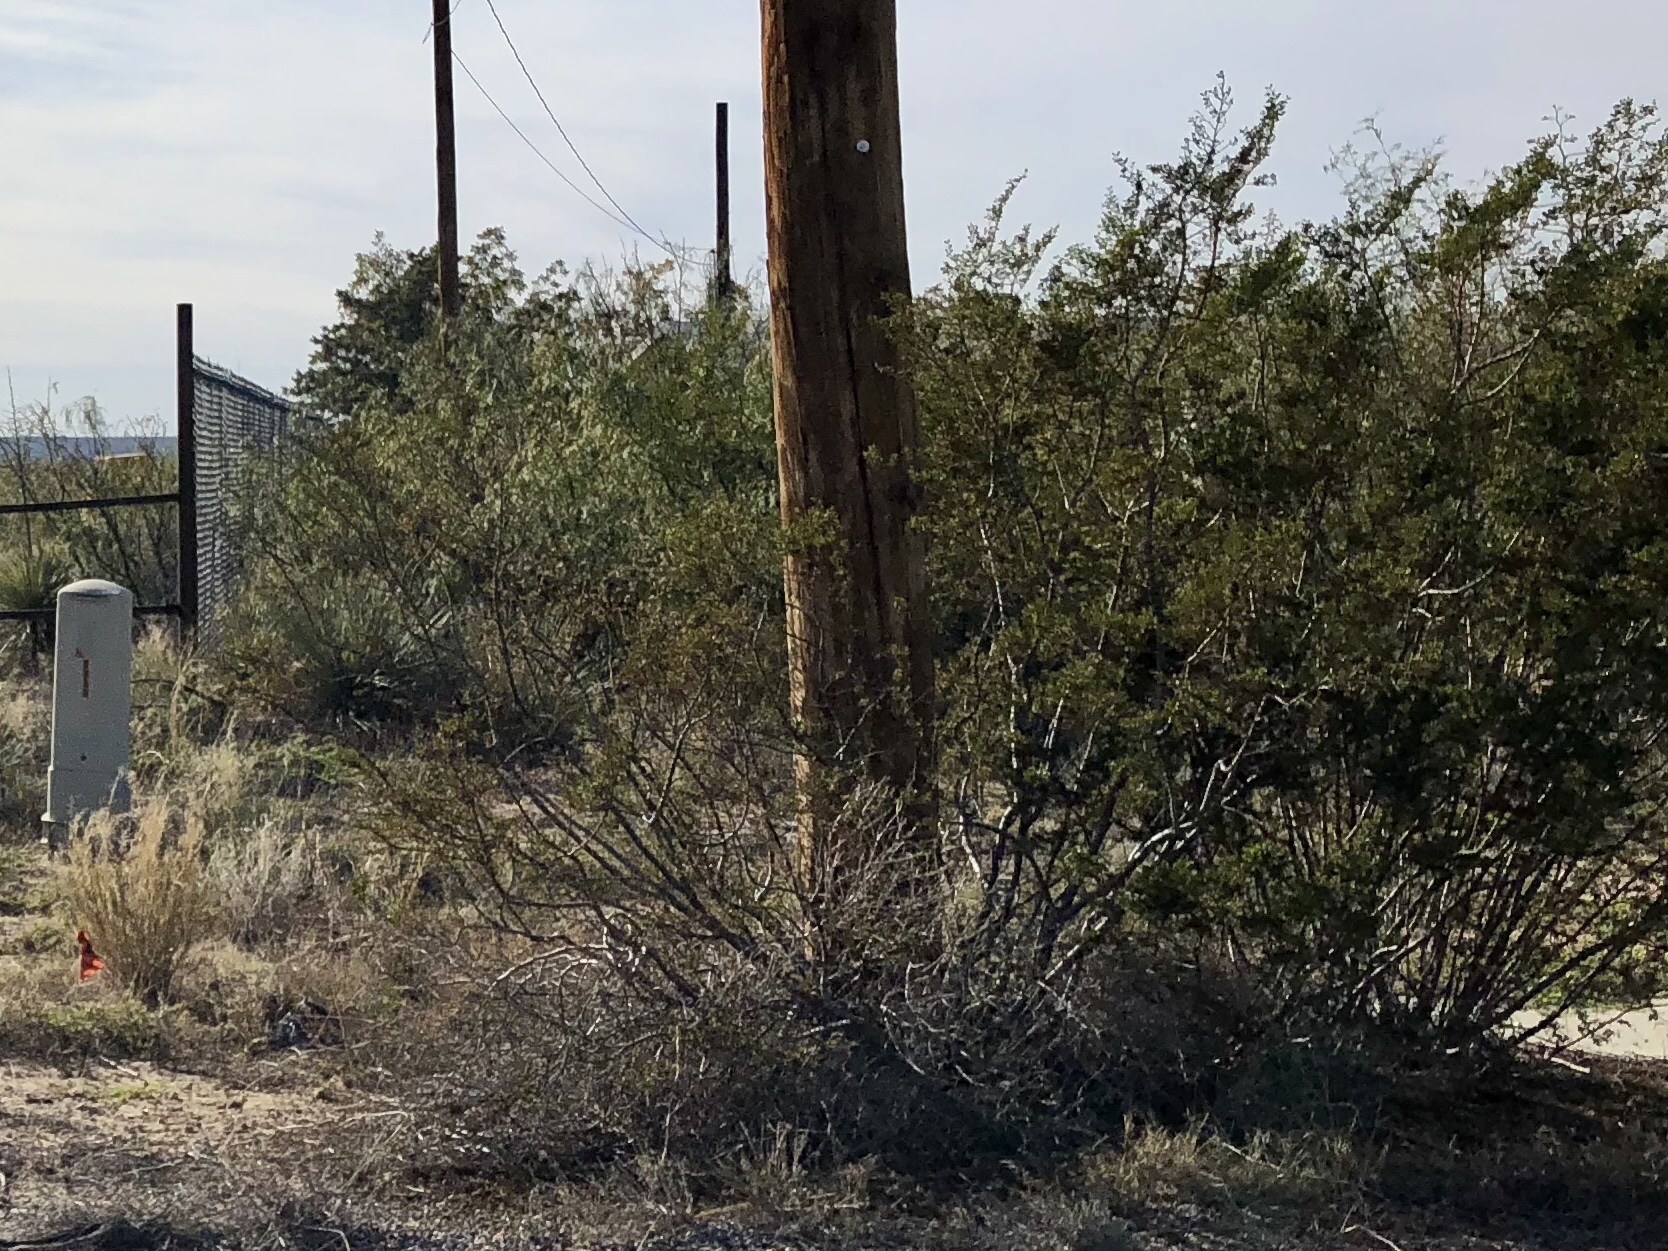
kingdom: Plantae
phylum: Tracheophyta
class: Magnoliopsida
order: Zygophyllales
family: Zygophyllaceae
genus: Larrea
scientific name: Larrea tridentata
